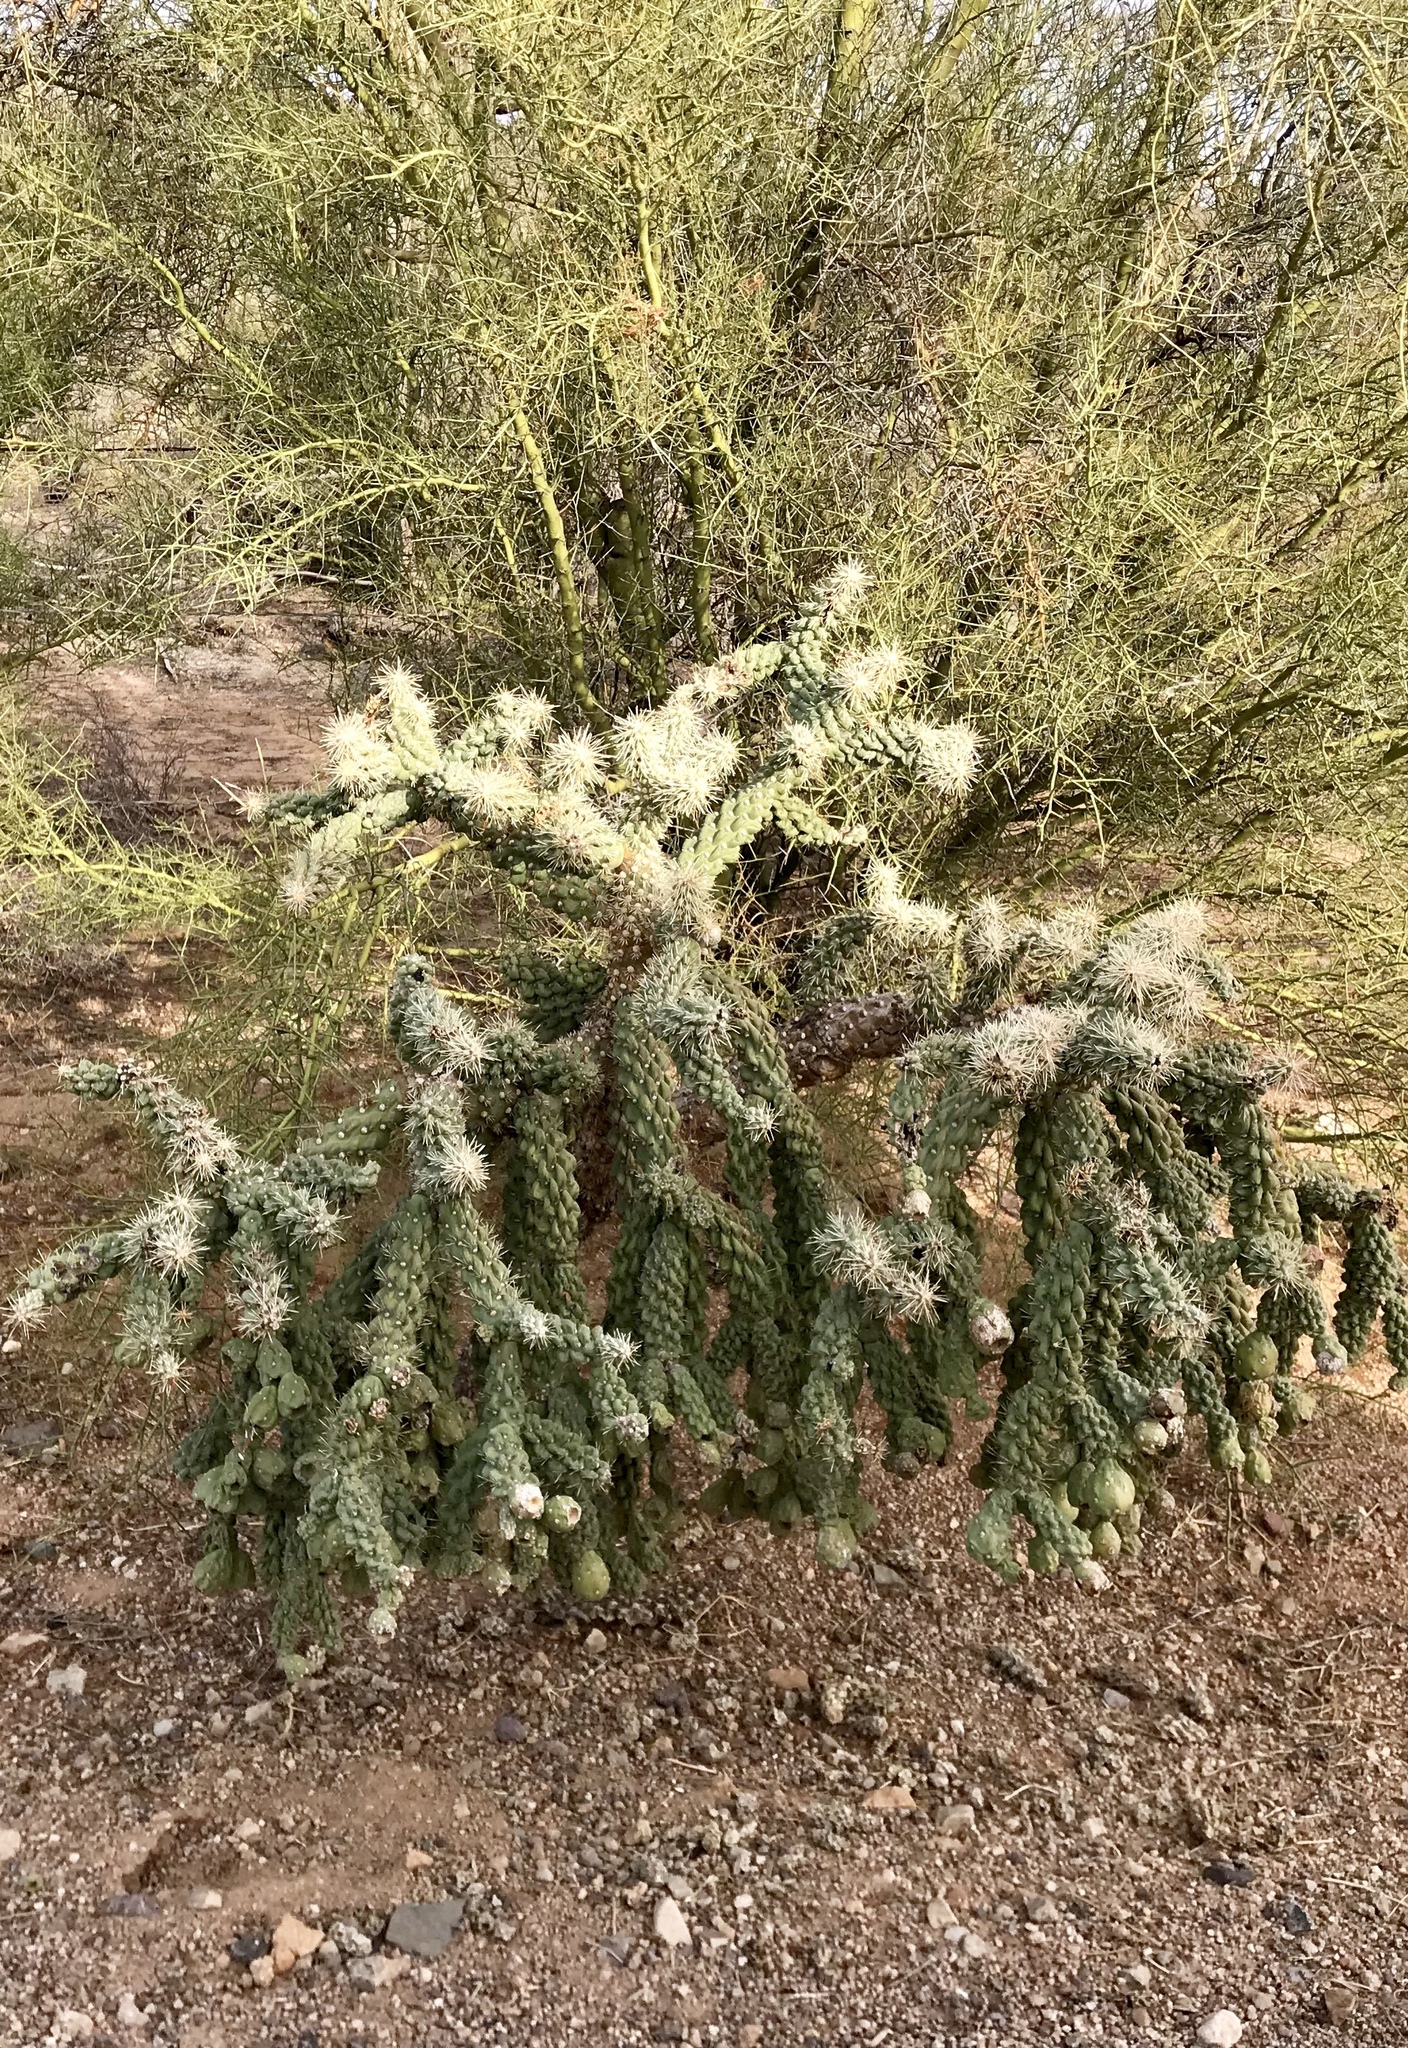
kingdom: Plantae
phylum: Tracheophyta
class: Magnoliopsida
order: Caryophyllales
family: Cactaceae
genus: Cylindropuntia
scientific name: Cylindropuntia fulgida
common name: Jumping cholla
